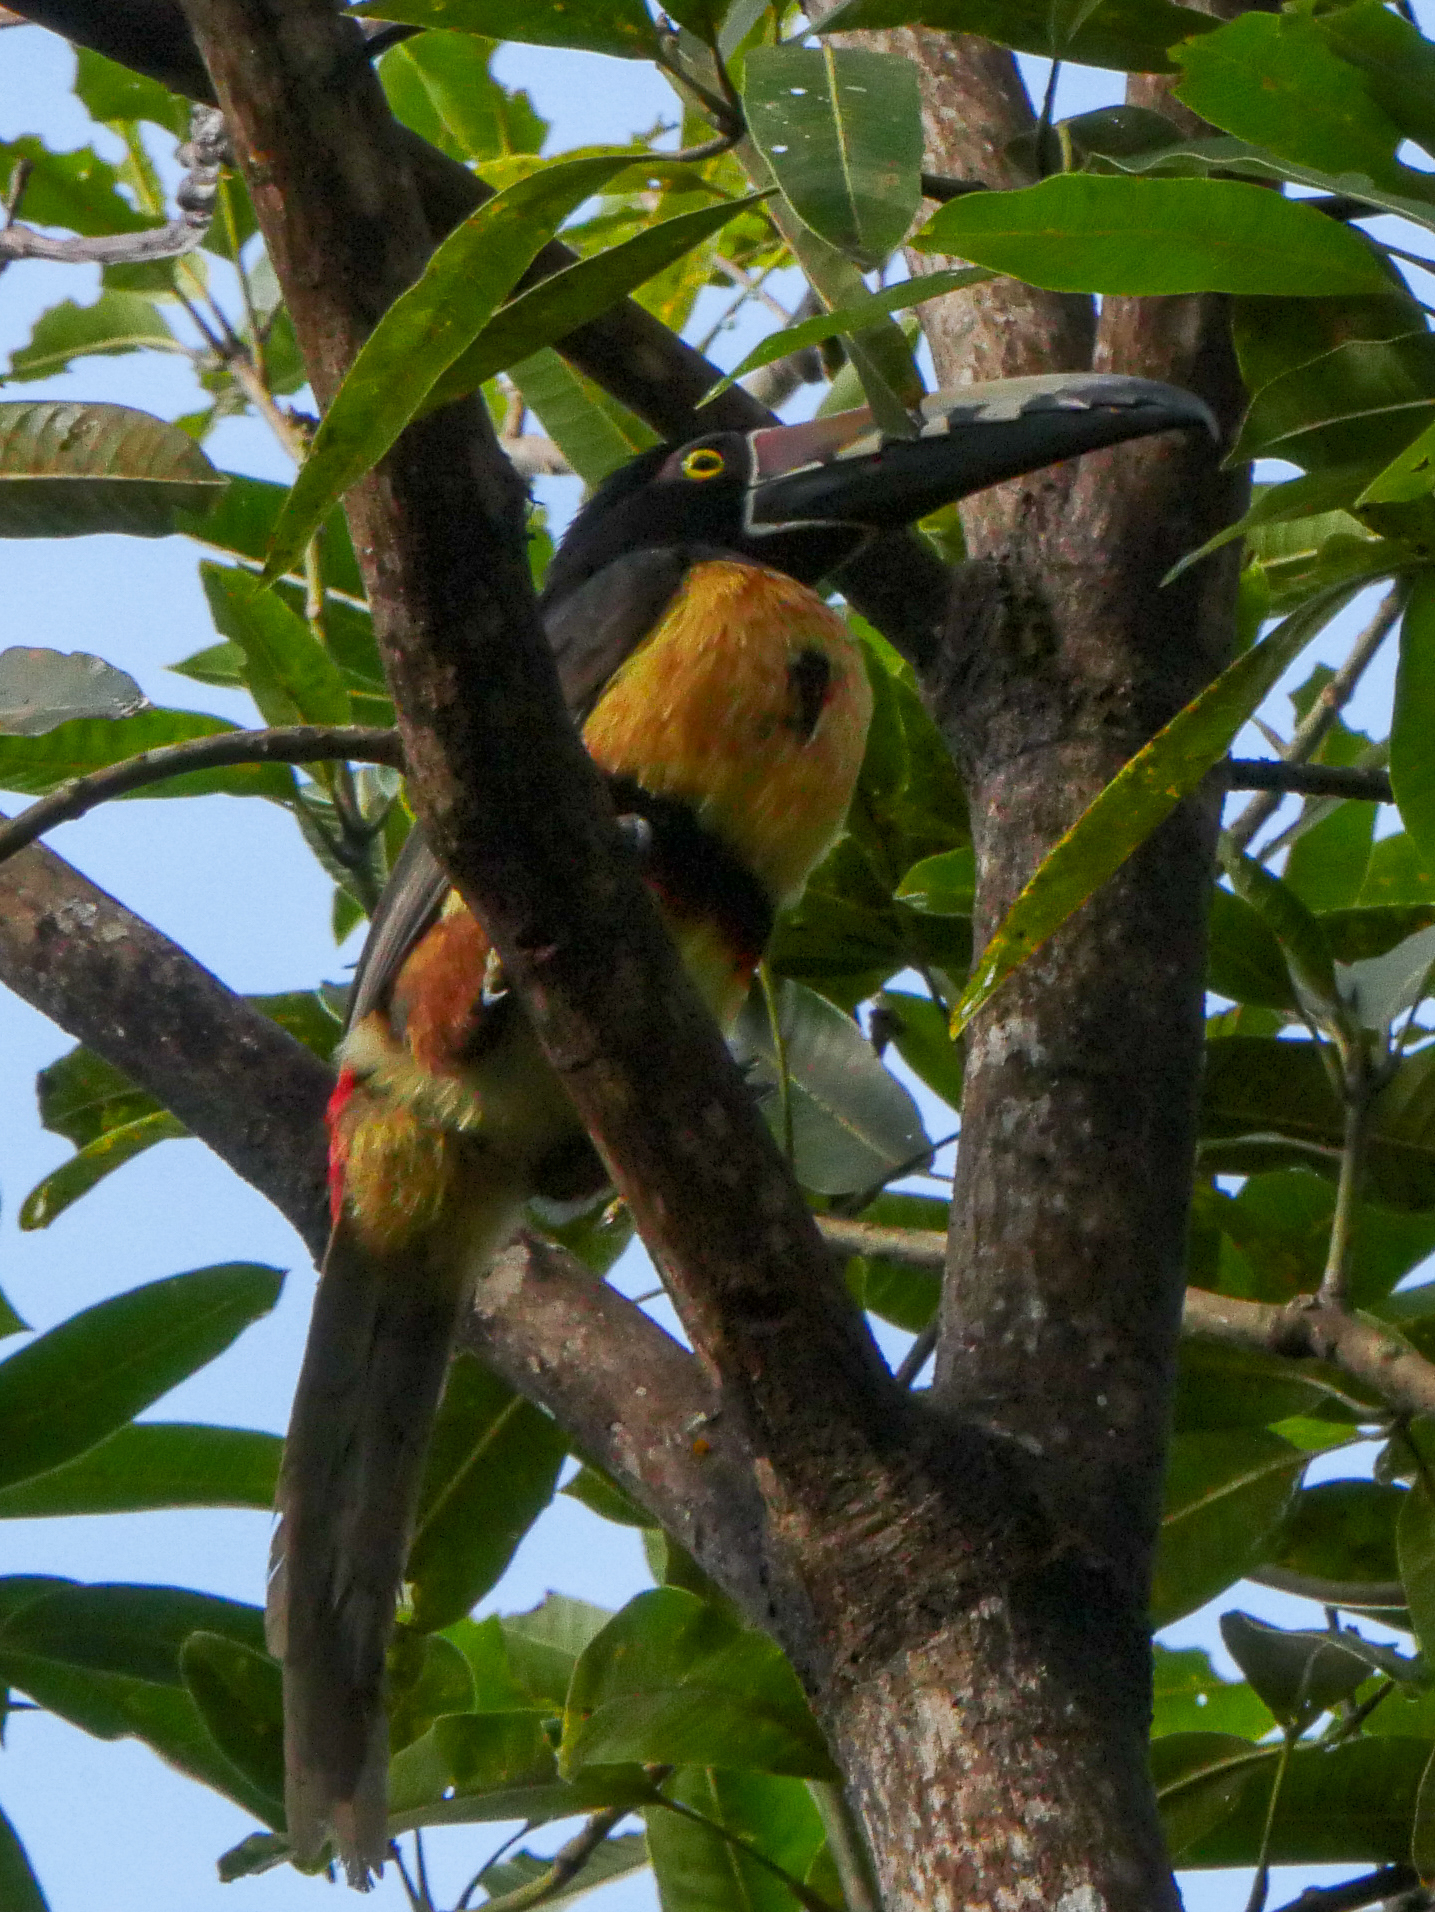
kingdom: Animalia
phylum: Chordata
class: Aves
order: Piciformes
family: Ramphastidae
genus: Pteroglossus
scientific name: Pteroglossus torquatus
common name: Collared aracari
